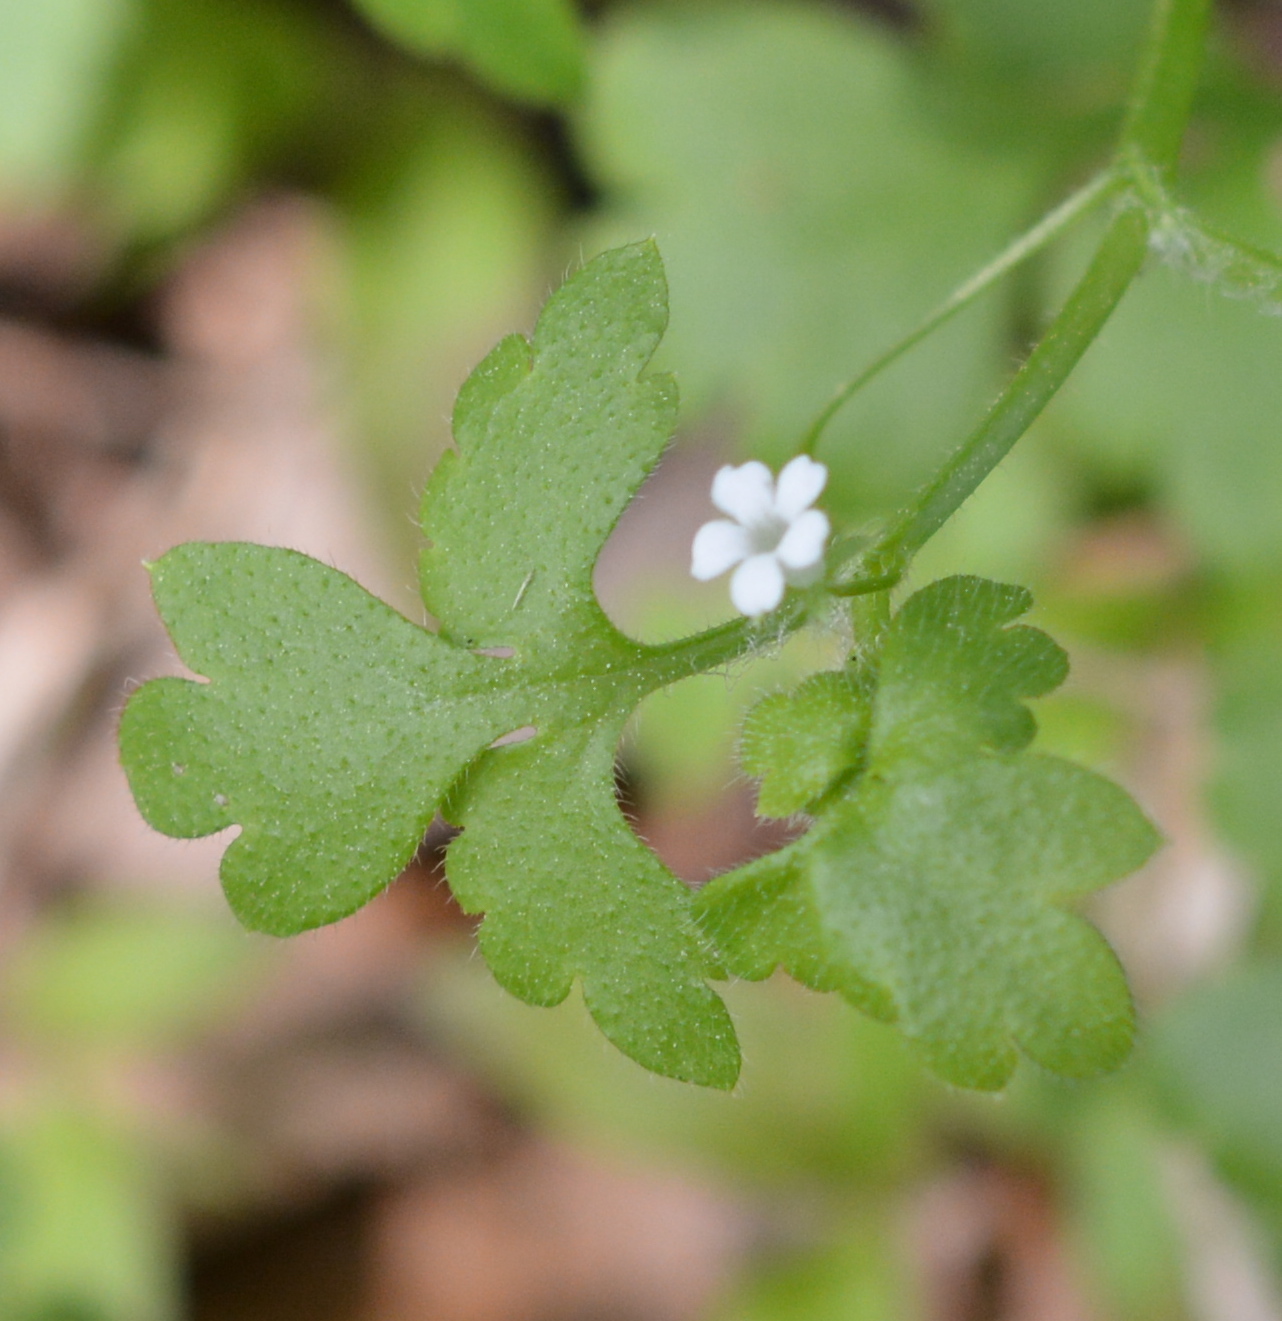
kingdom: Plantae
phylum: Tracheophyta
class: Magnoliopsida
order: Boraginales
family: Hydrophyllaceae
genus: Nemophila
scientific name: Nemophila aphylla
